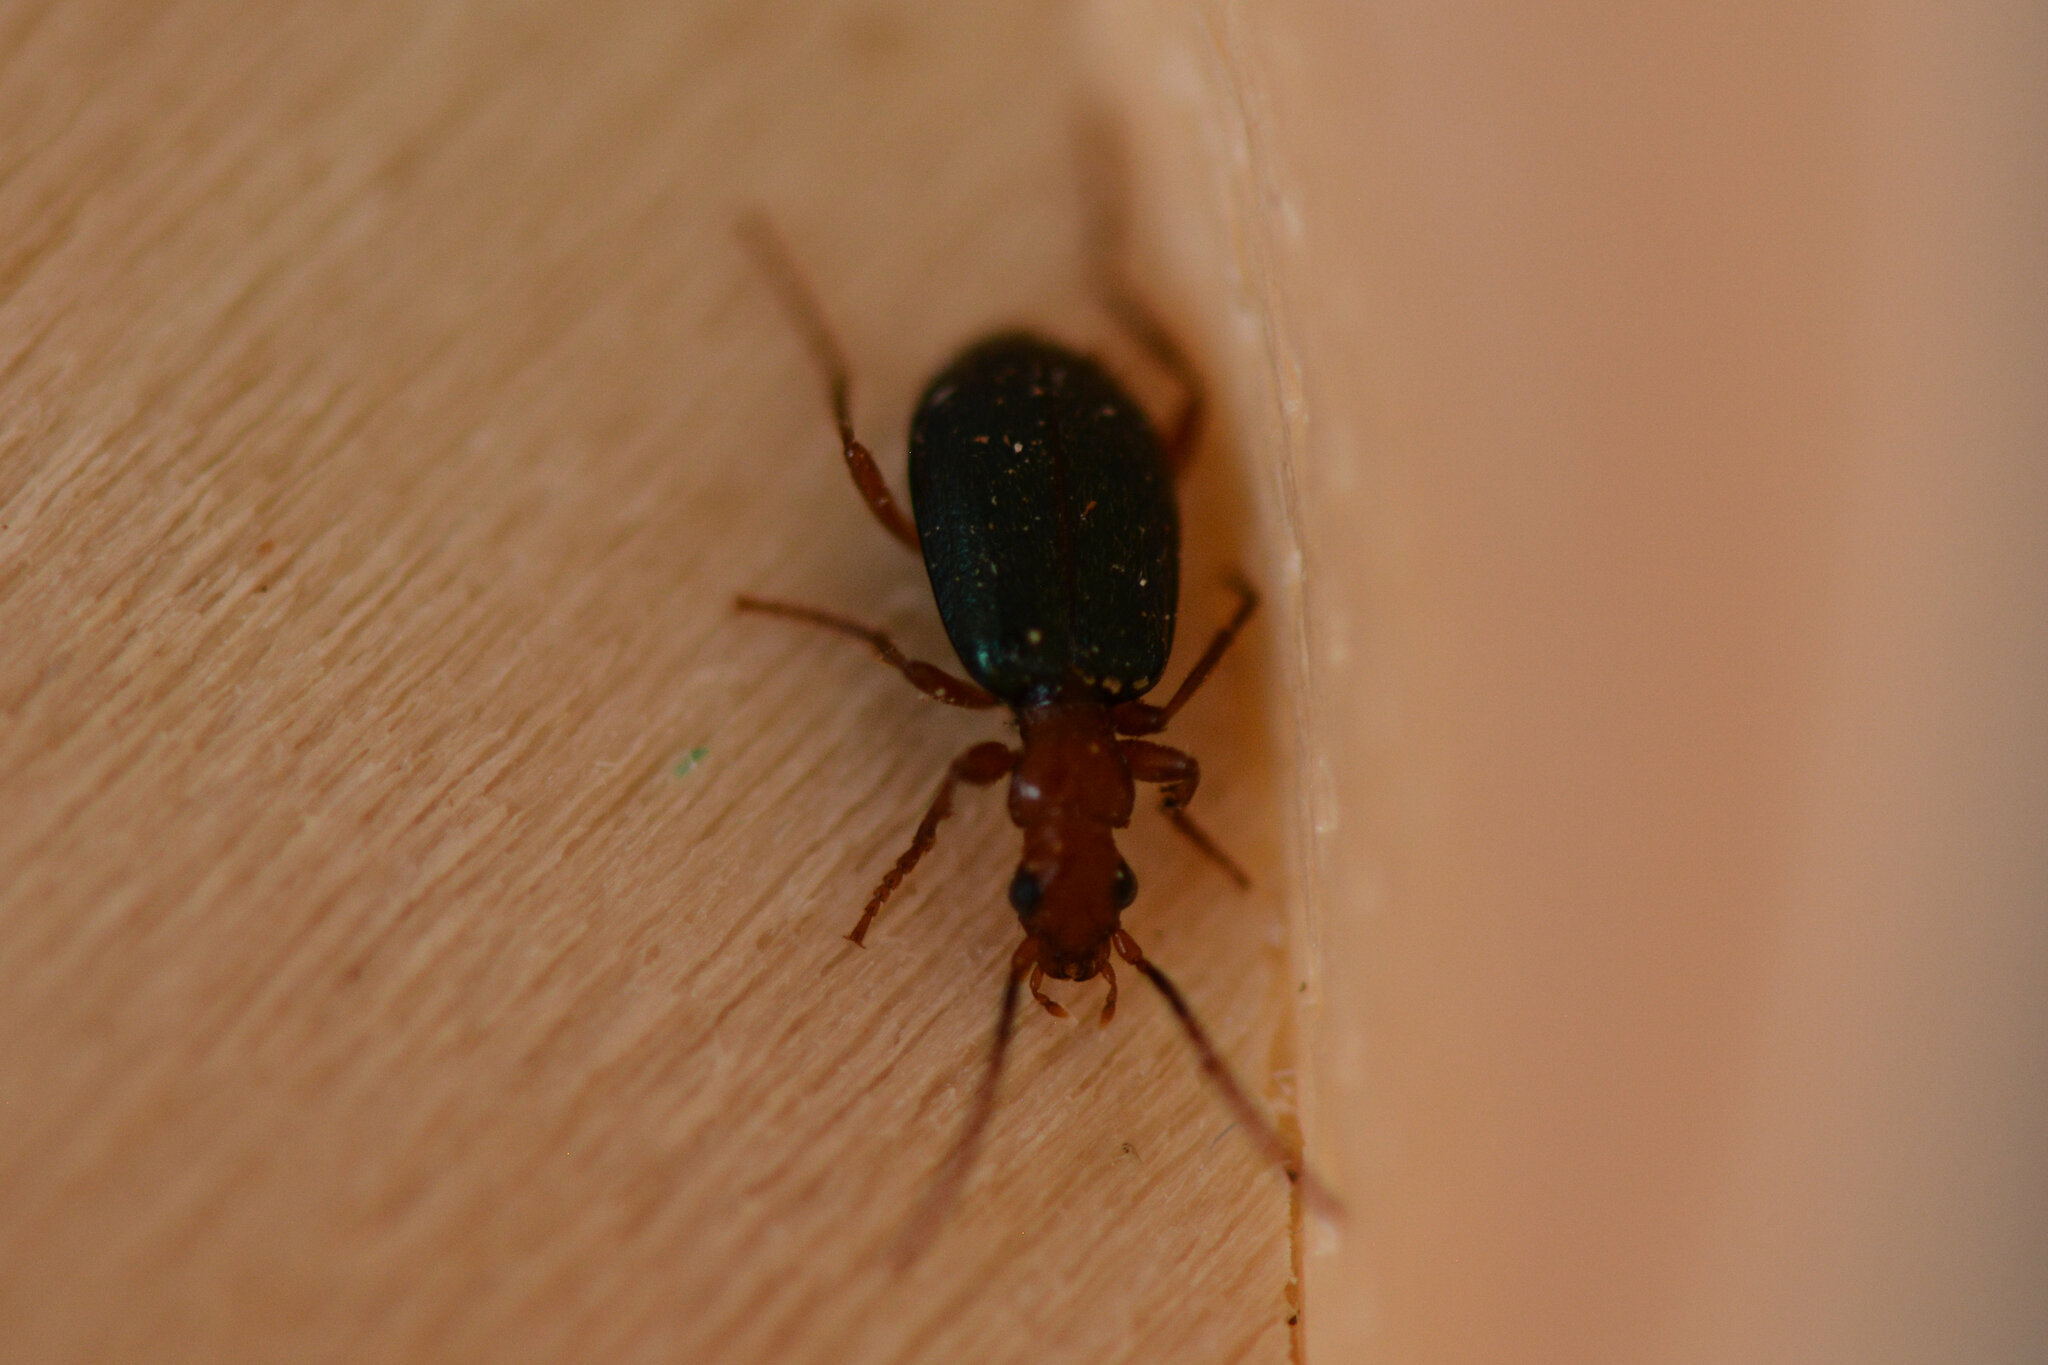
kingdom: Animalia
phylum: Arthropoda
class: Insecta
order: Coleoptera
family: Carabidae
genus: Brachinus
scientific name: Brachinus crepitans
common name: Bombadier beetle
